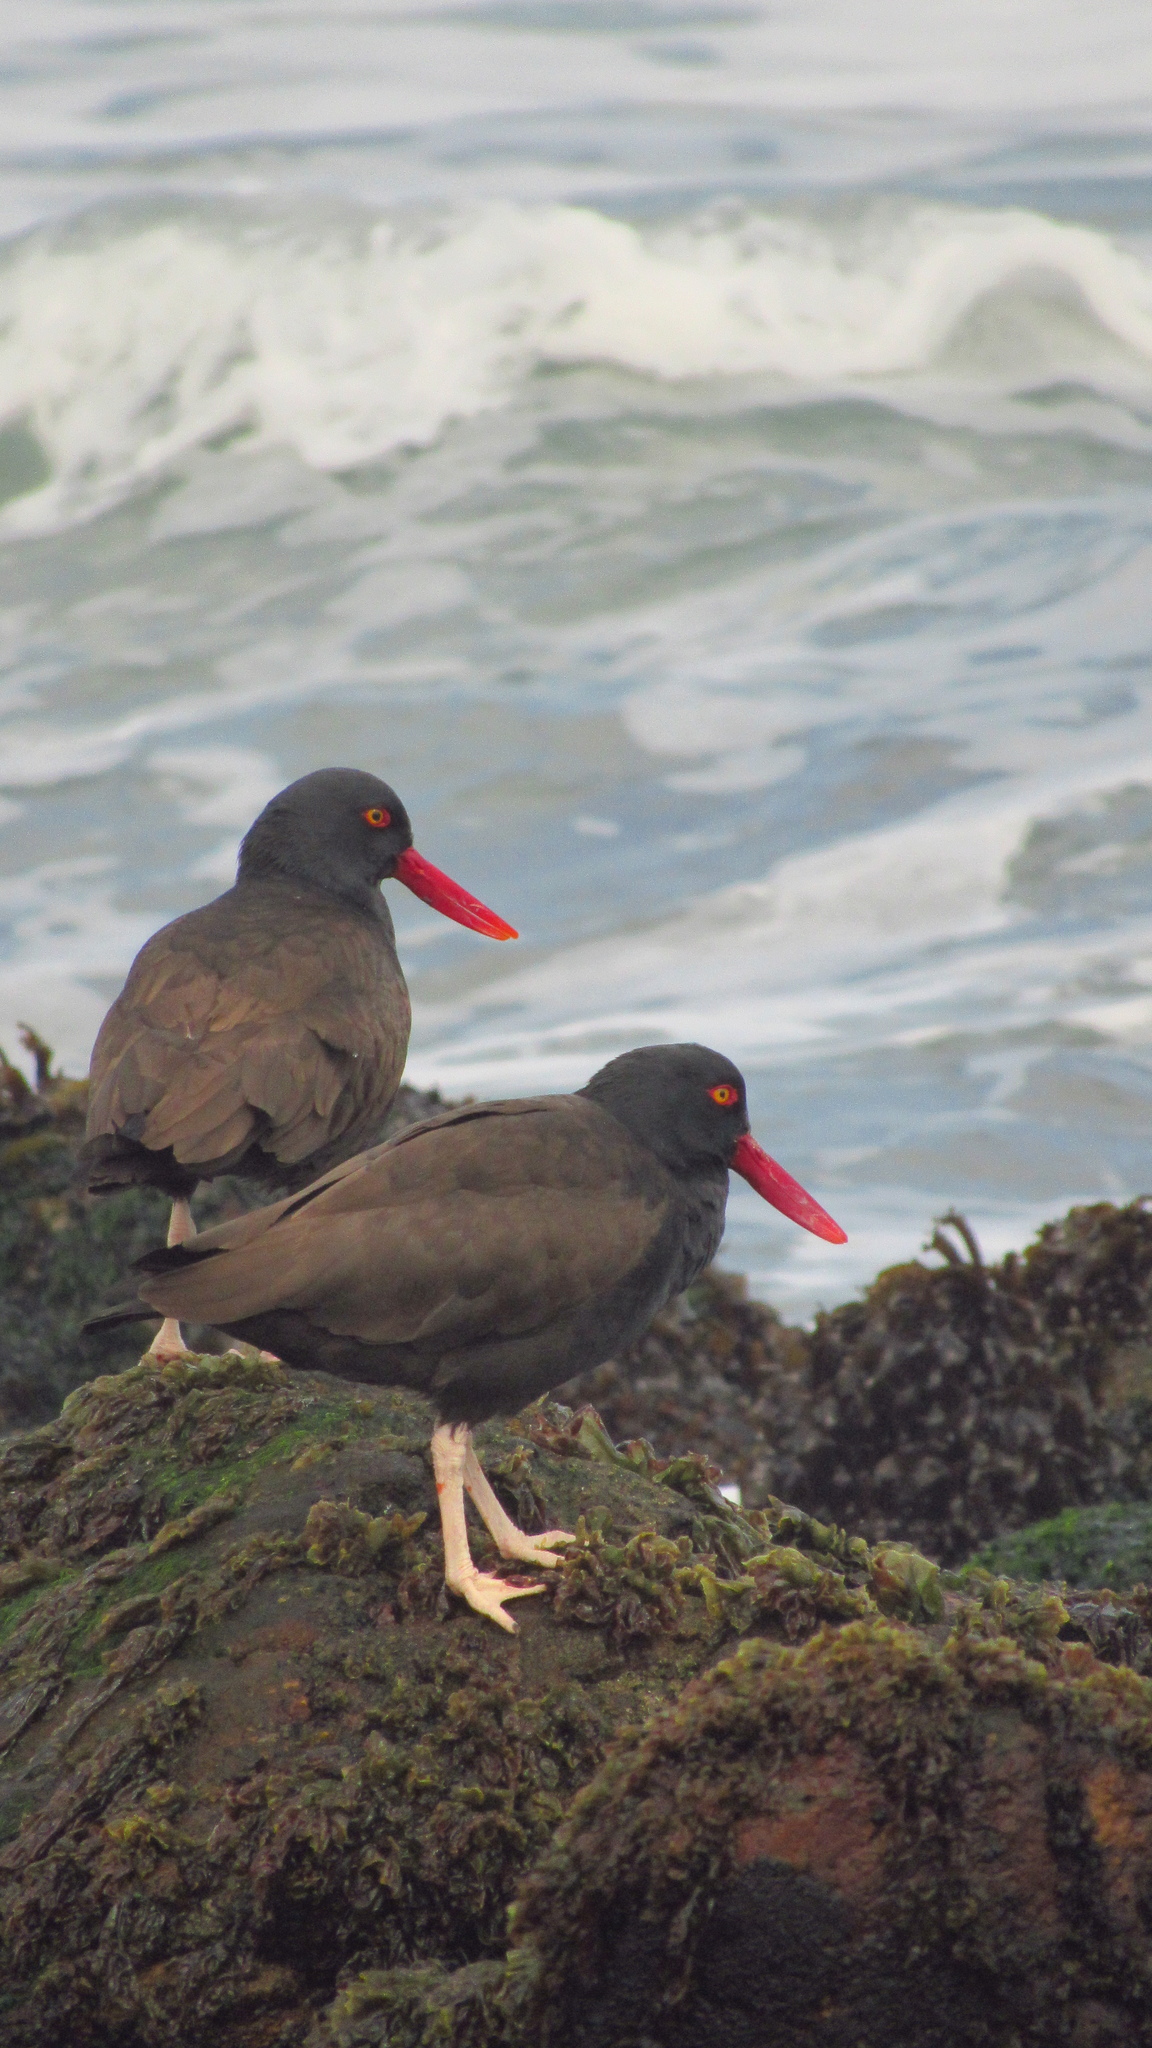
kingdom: Animalia
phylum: Chordata
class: Aves
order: Charadriiformes
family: Haematopodidae
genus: Haematopus
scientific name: Haematopus ater
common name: Blackish oystercatcher
